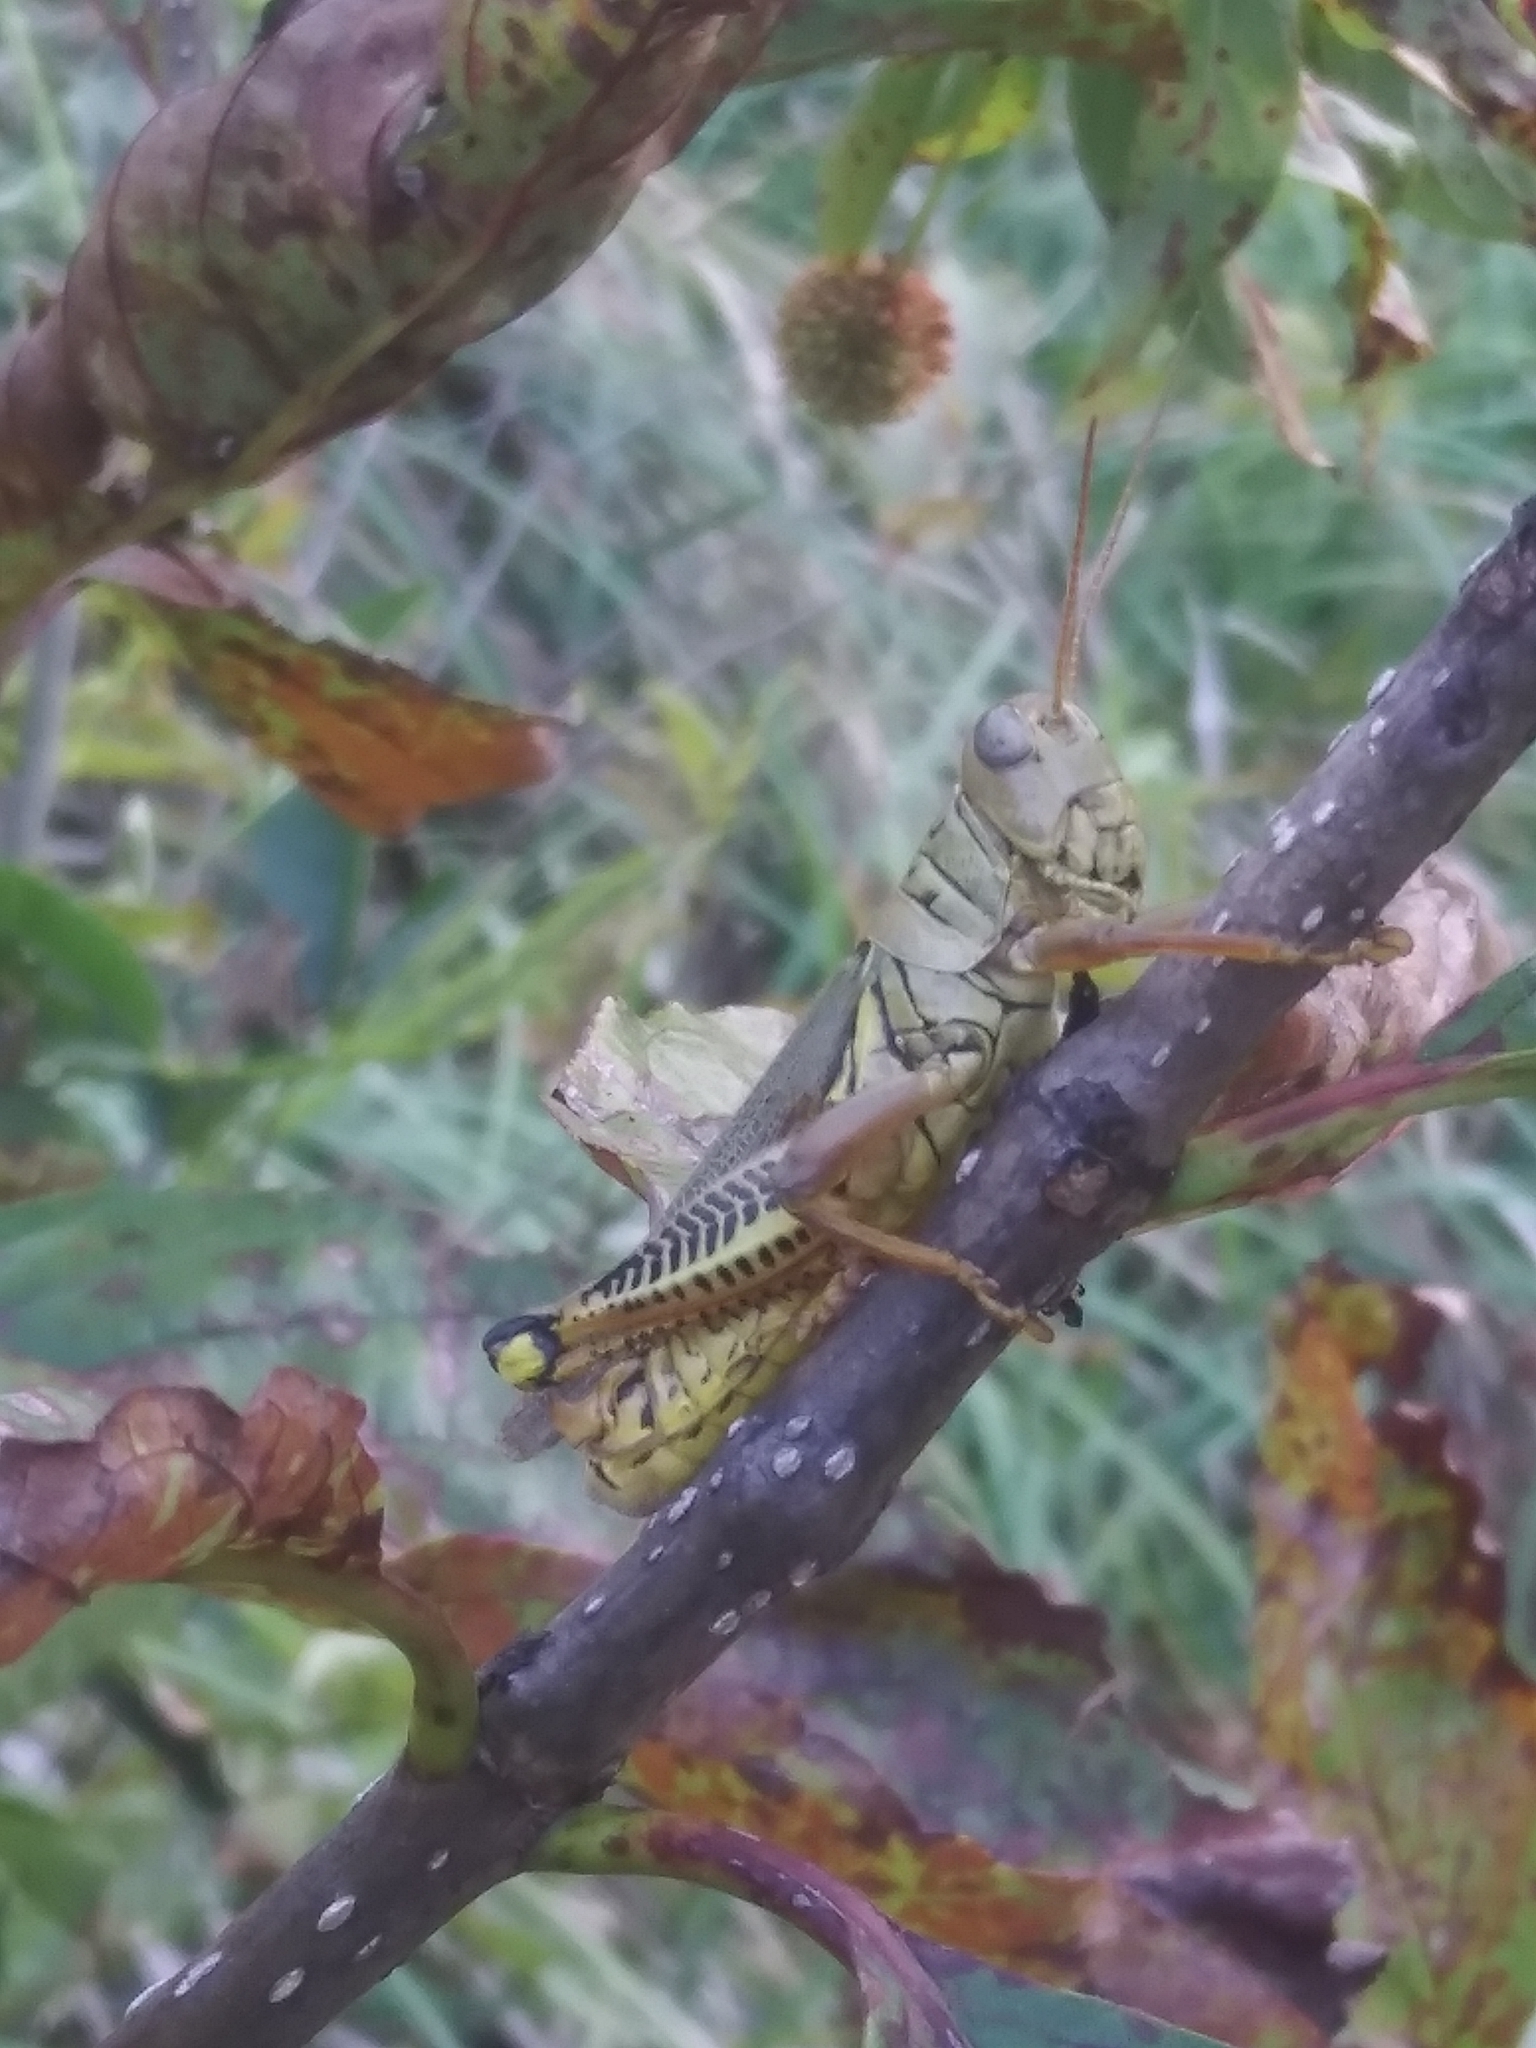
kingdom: Animalia
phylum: Arthropoda
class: Insecta
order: Orthoptera
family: Acrididae
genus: Melanoplus
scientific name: Melanoplus differentialis
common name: Differential grasshopper
